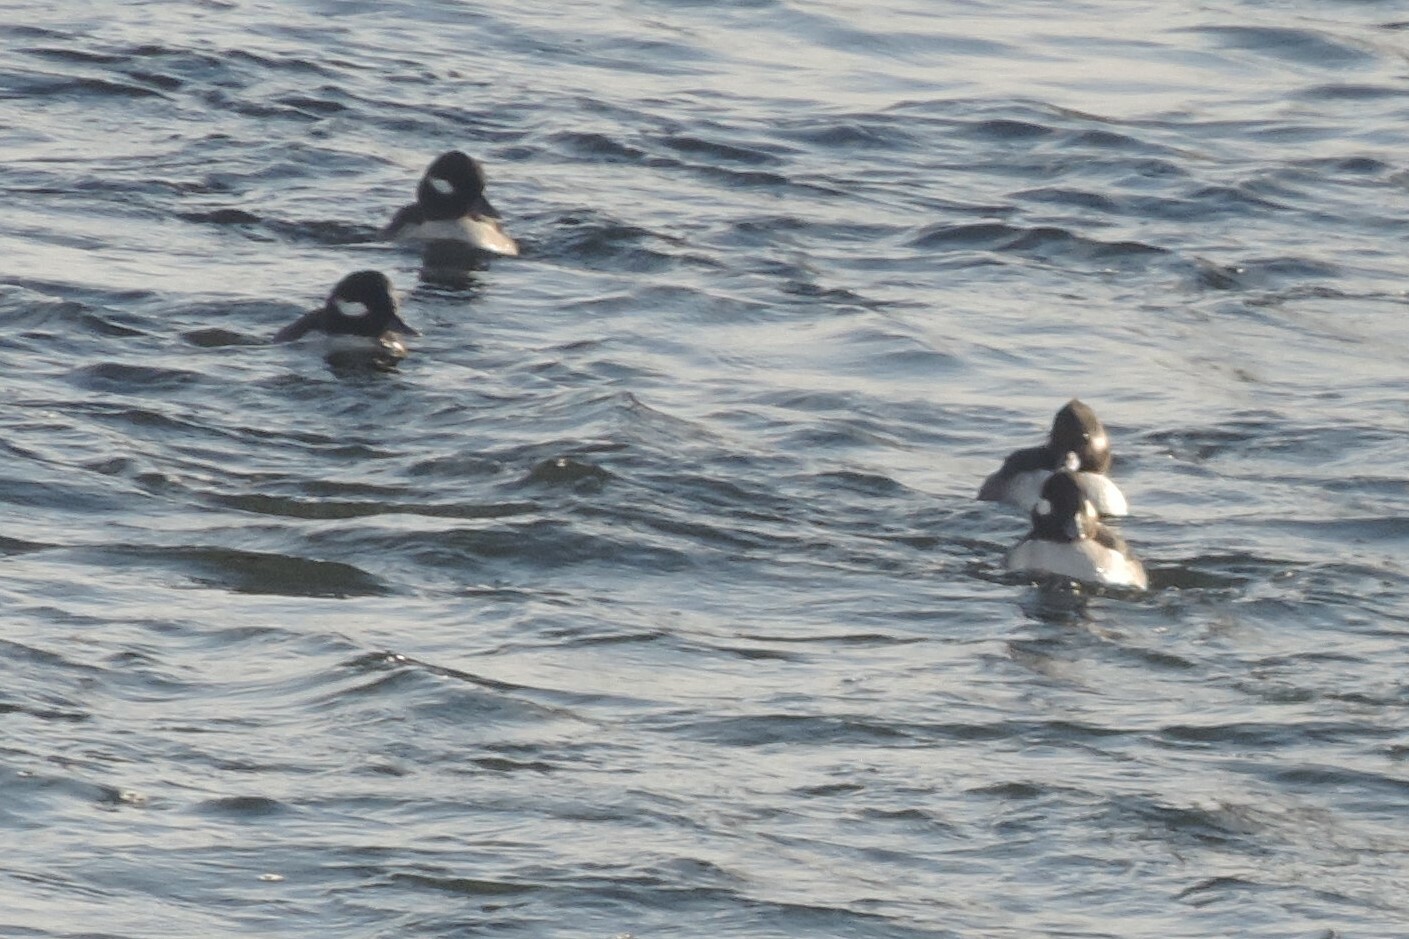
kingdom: Animalia
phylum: Chordata
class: Aves
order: Anseriformes
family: Anatidae
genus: Bucephala
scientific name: Bucephala albeola
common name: Bufflehead
